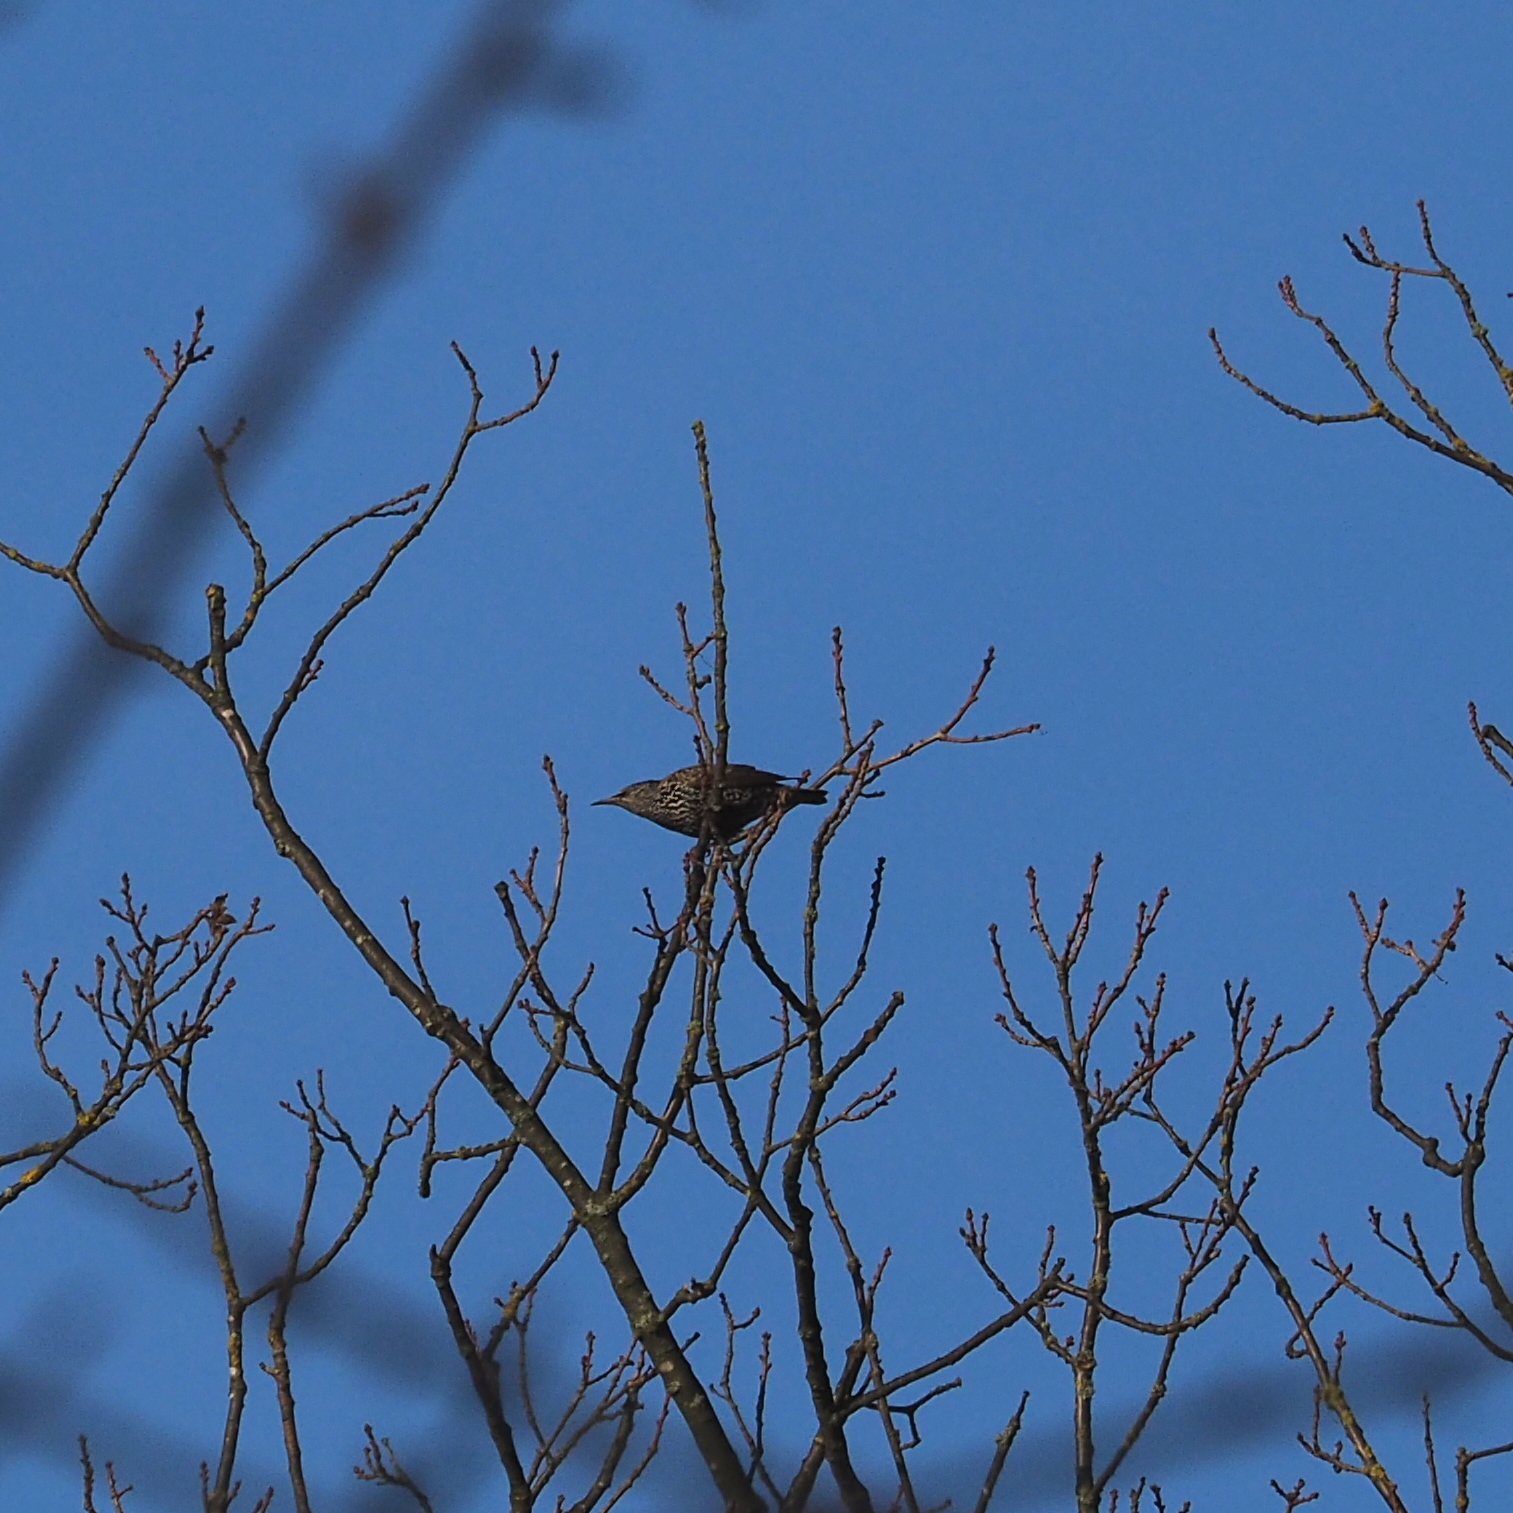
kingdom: Animalia
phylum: Chordata
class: Aves
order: Passeriformes
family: Sturnidae
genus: Sturnus
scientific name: Sturnus vulgaris
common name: Common starling
